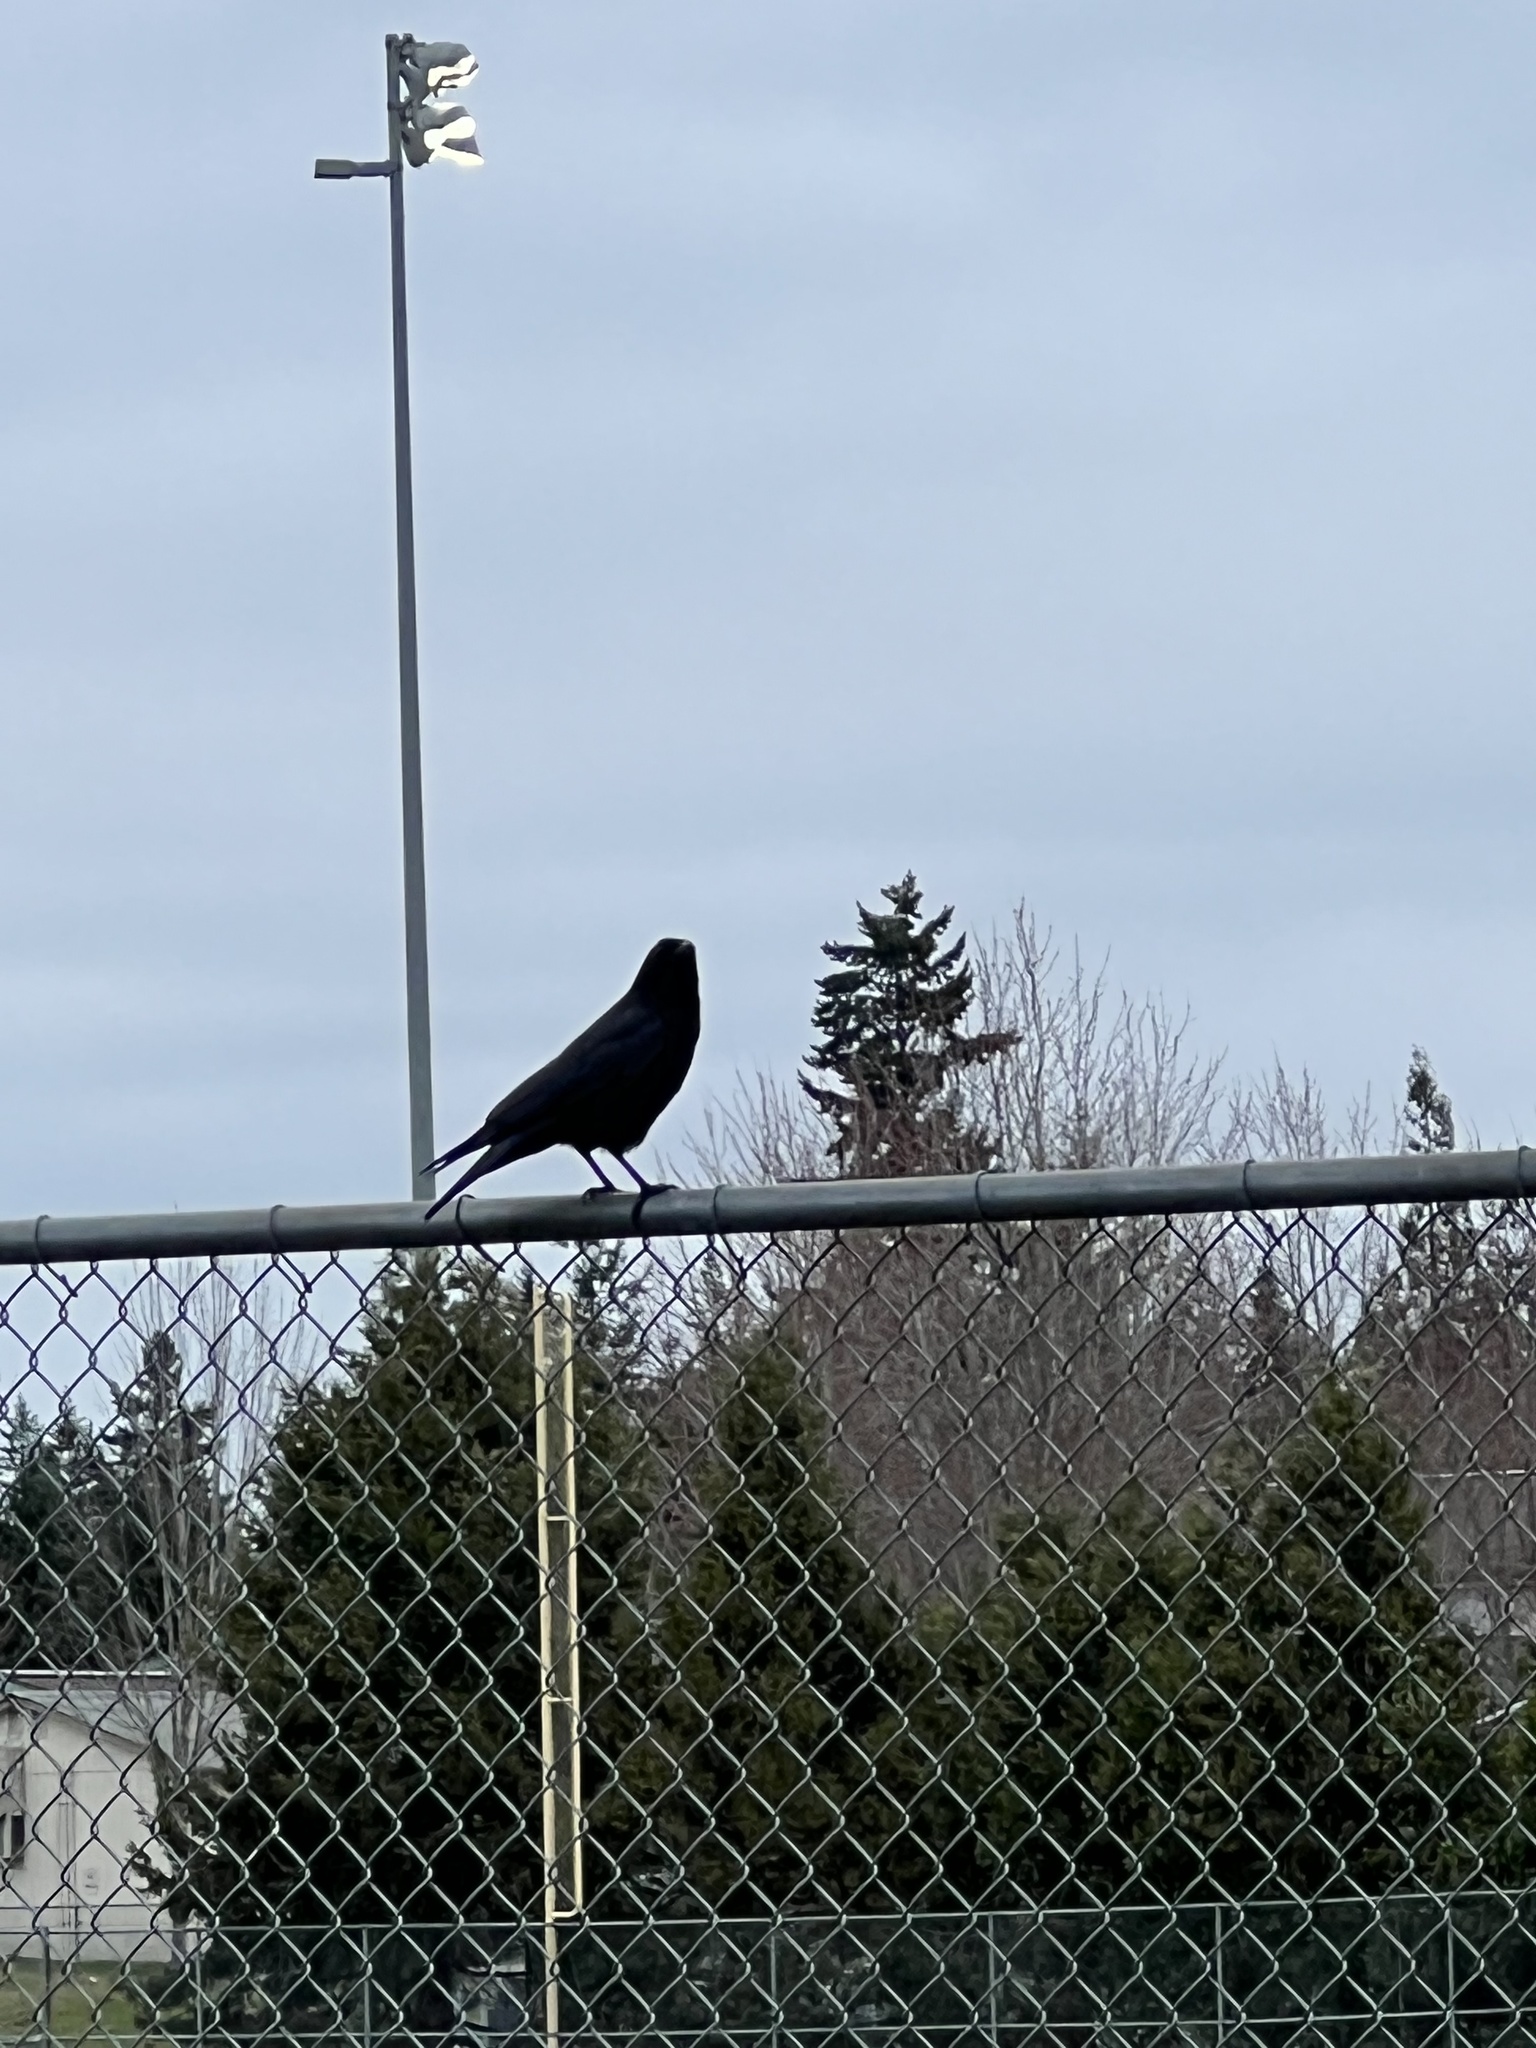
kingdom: Animalia
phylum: Chordata
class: Aves
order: Passeriformes
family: Corvidae
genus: Corvus
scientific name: Corvus brachyrhynchos
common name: American crow
